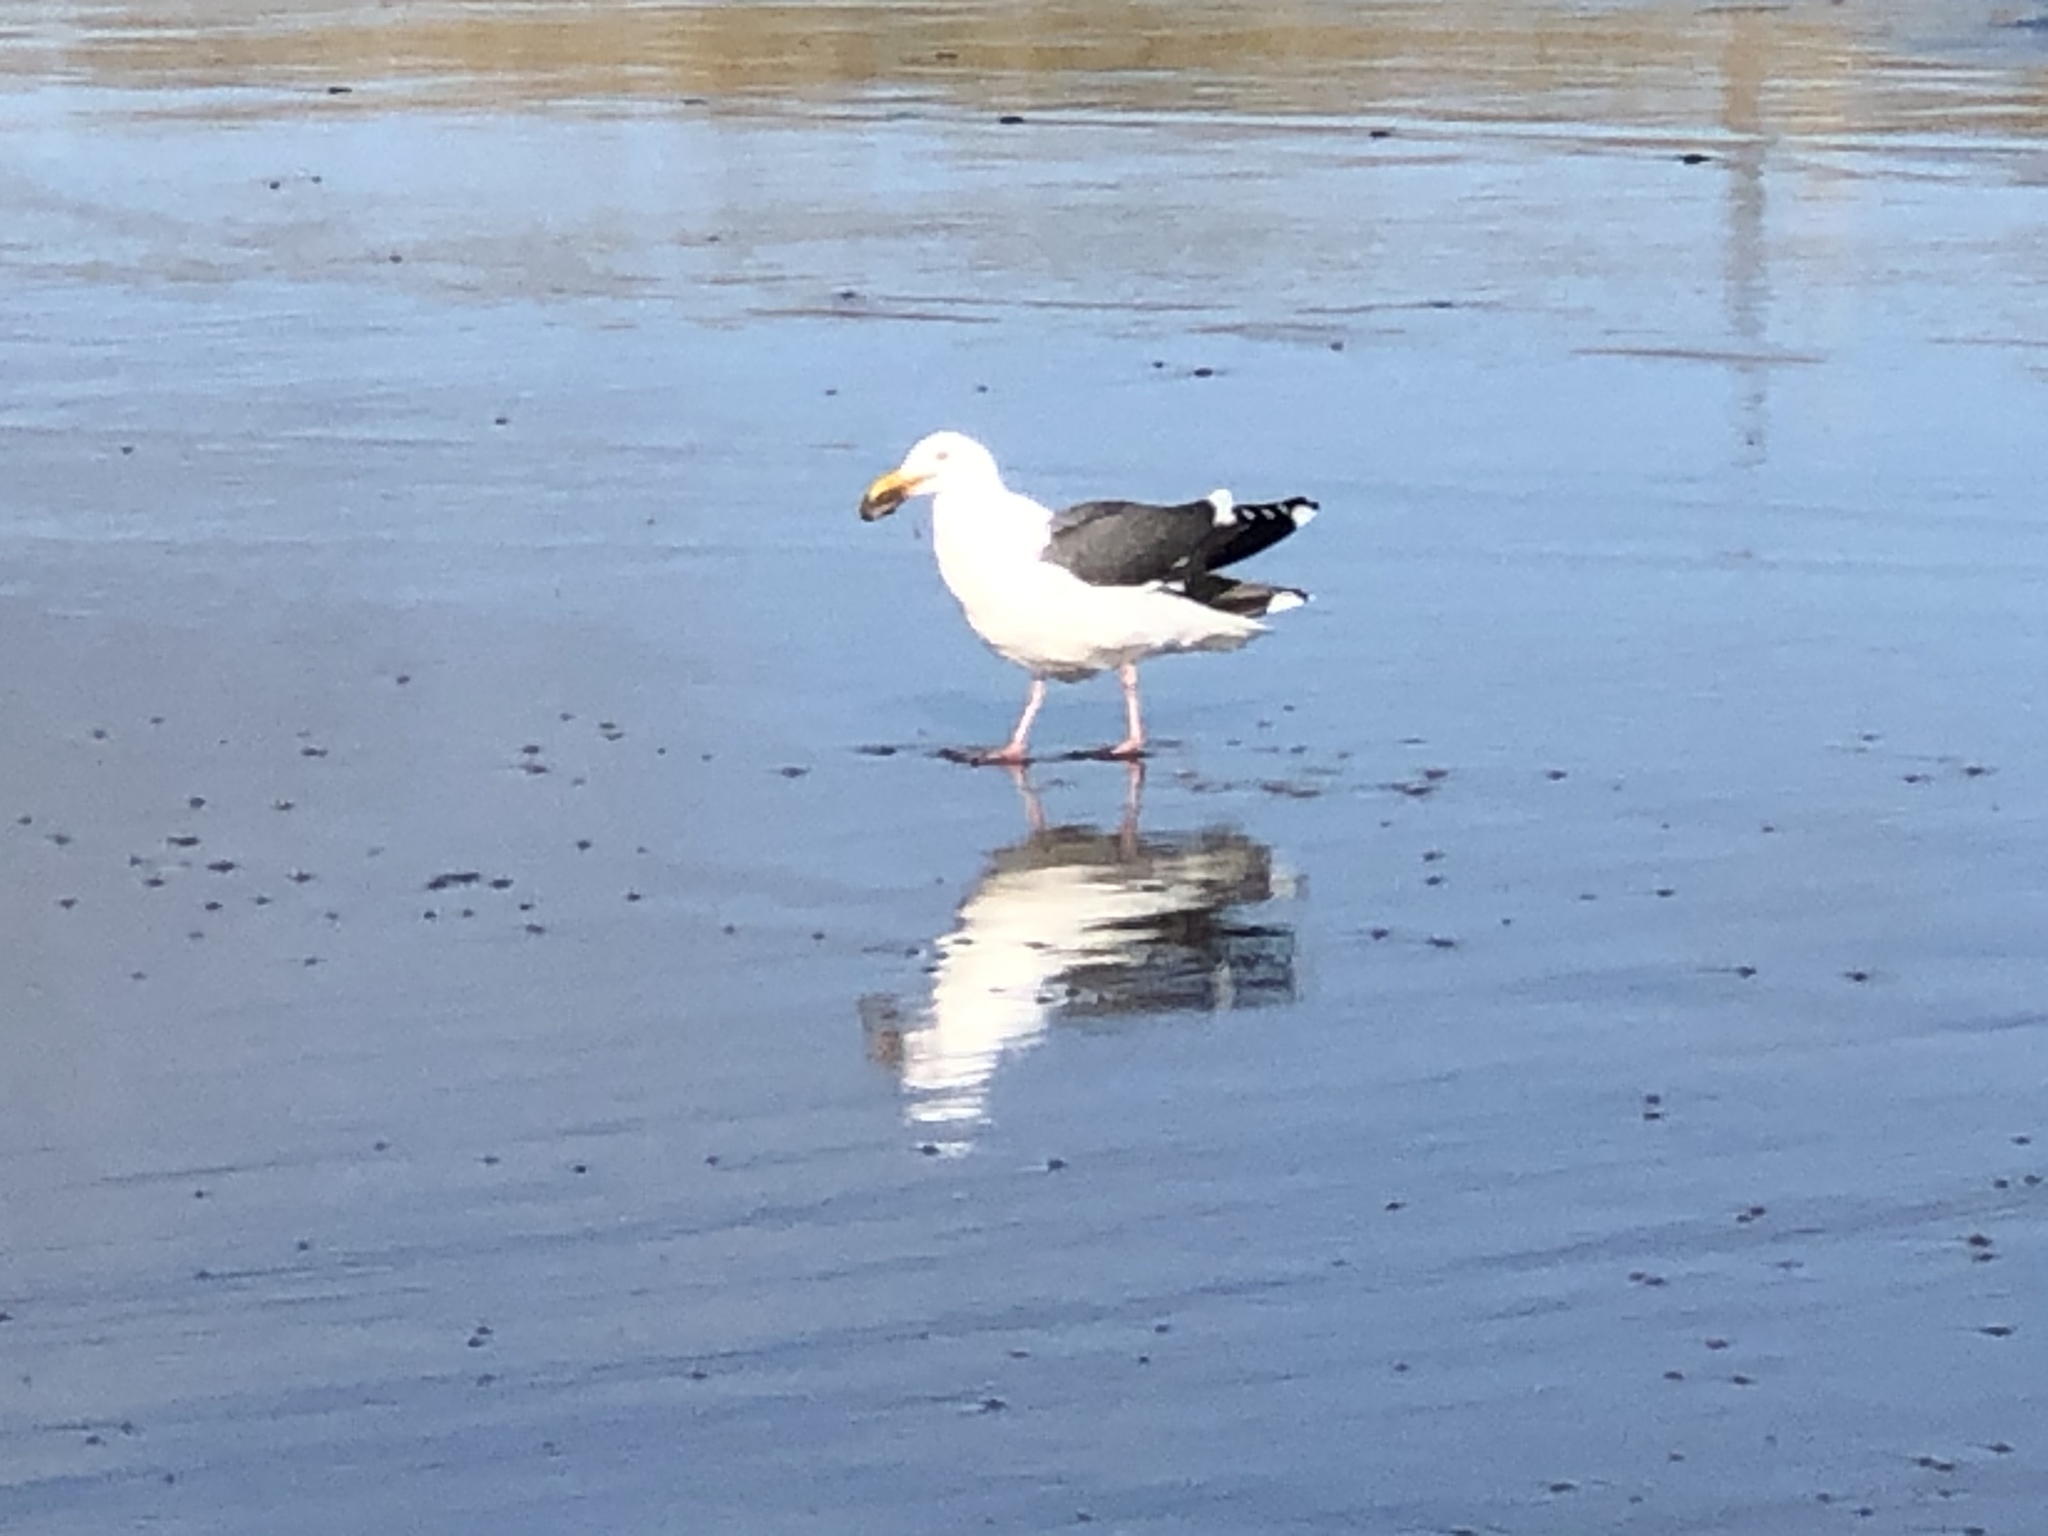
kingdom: Animalia
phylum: Chordata
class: Aves
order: Charadriiformes
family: Laridae
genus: Larus
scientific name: Larus occidentalis
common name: Western gull
